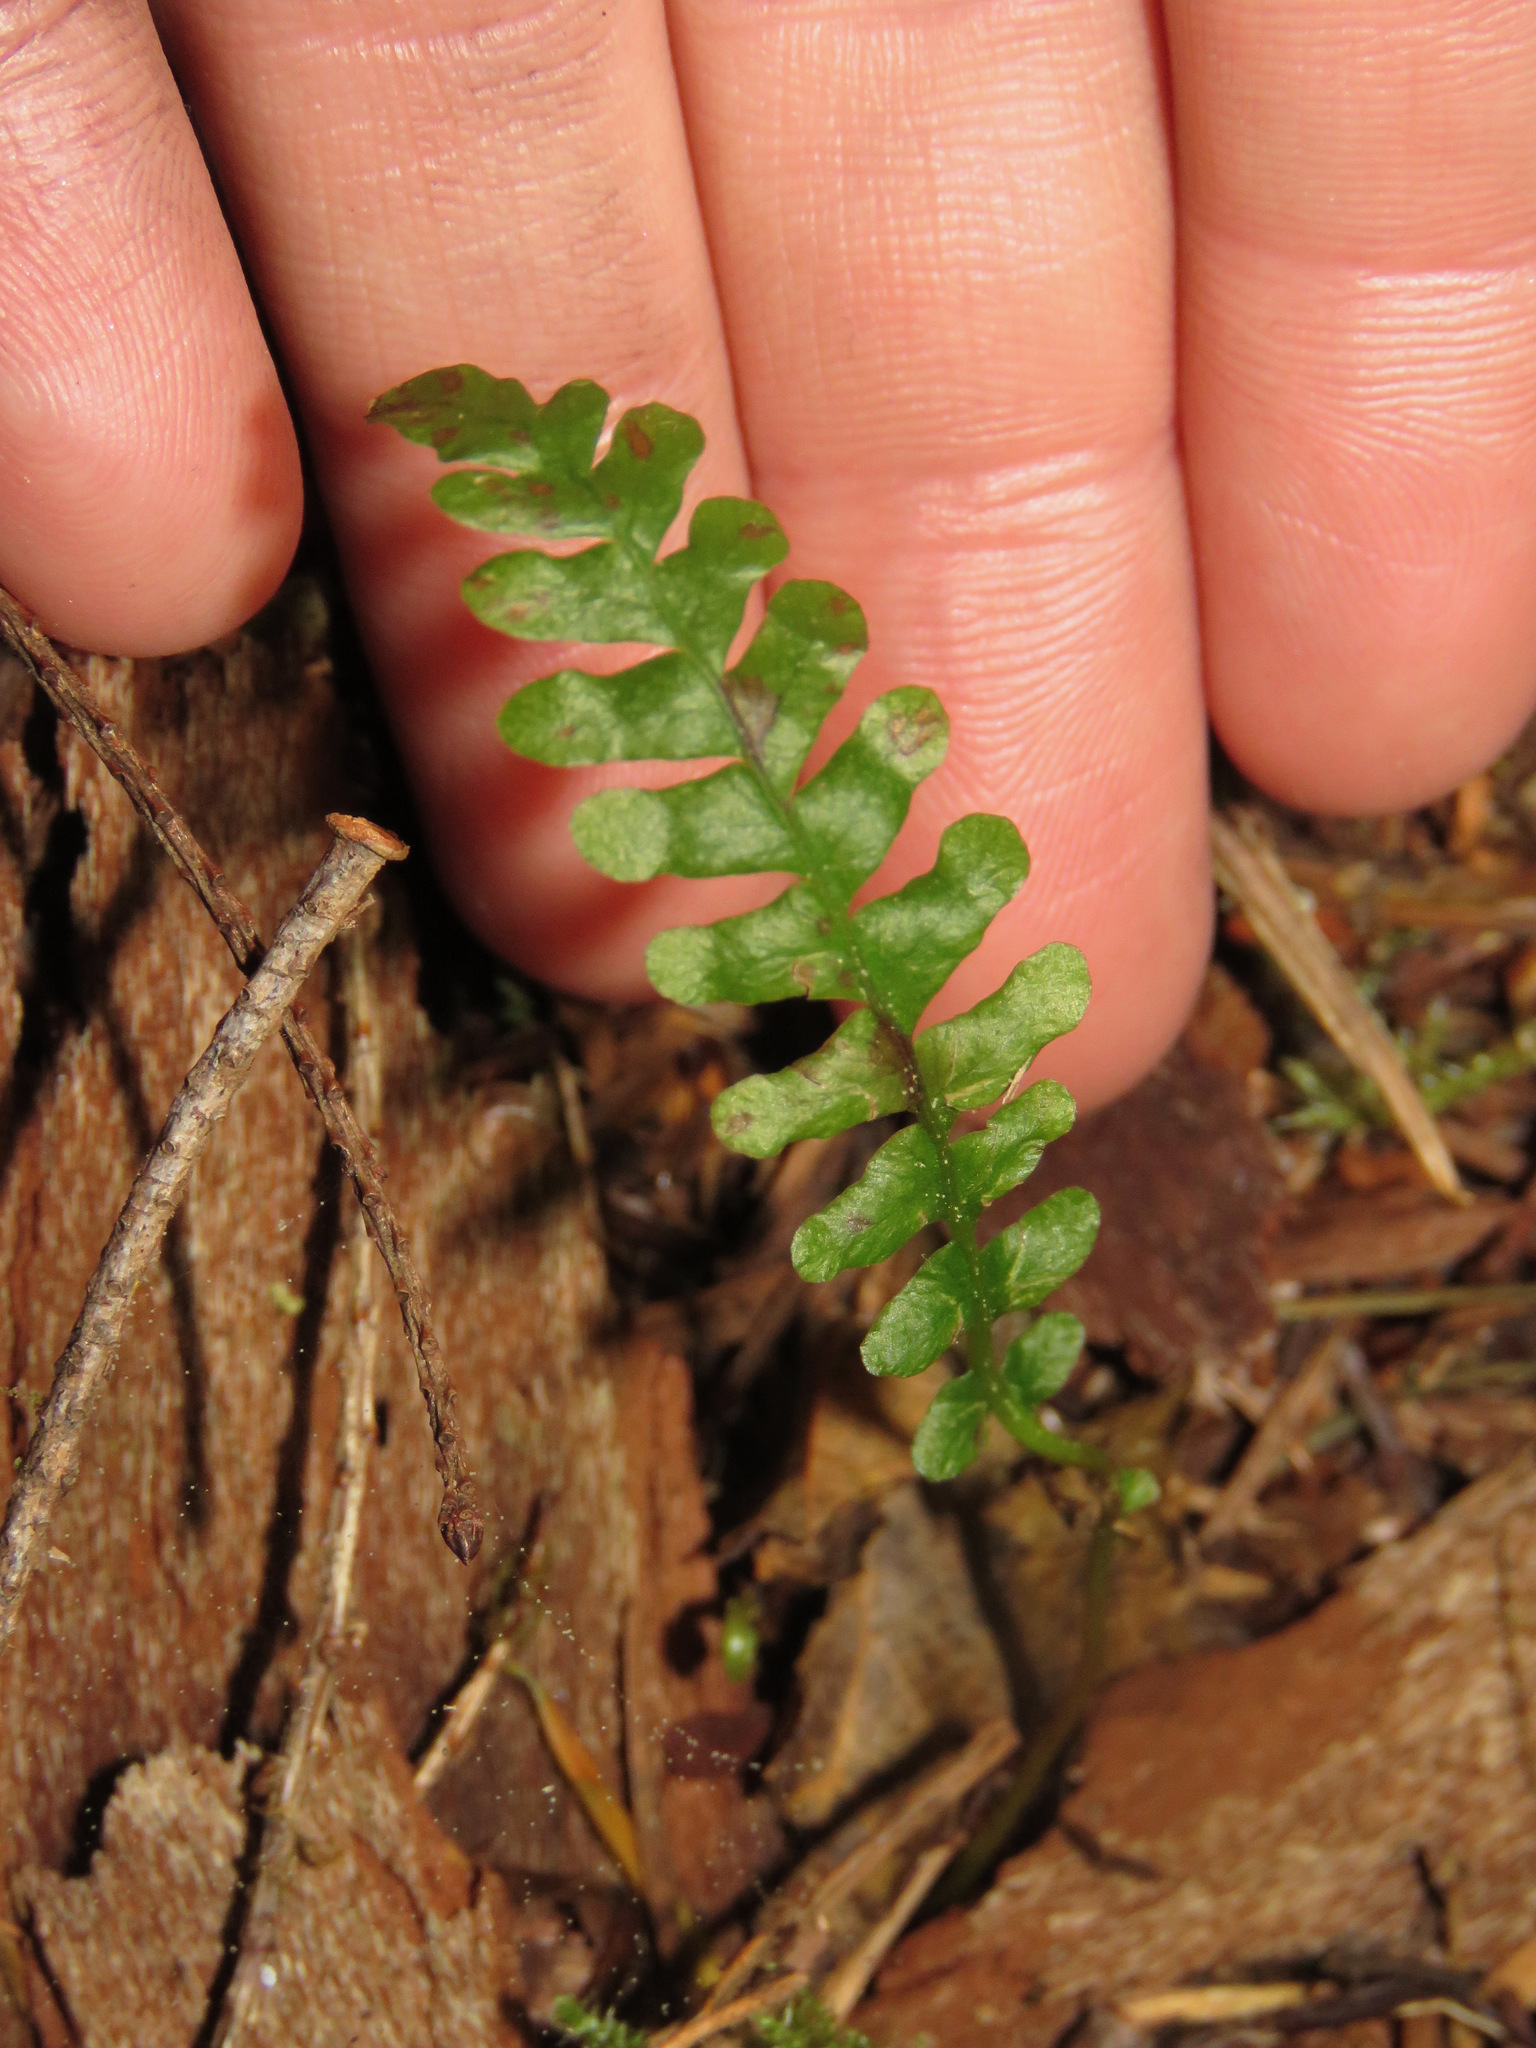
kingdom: Plantae
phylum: Tracheophyta
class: Polypodiopsida
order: Polypodiales
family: Blechnaceae
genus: Struthiopteris
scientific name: Struthiopteris spicant
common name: Deer fern
